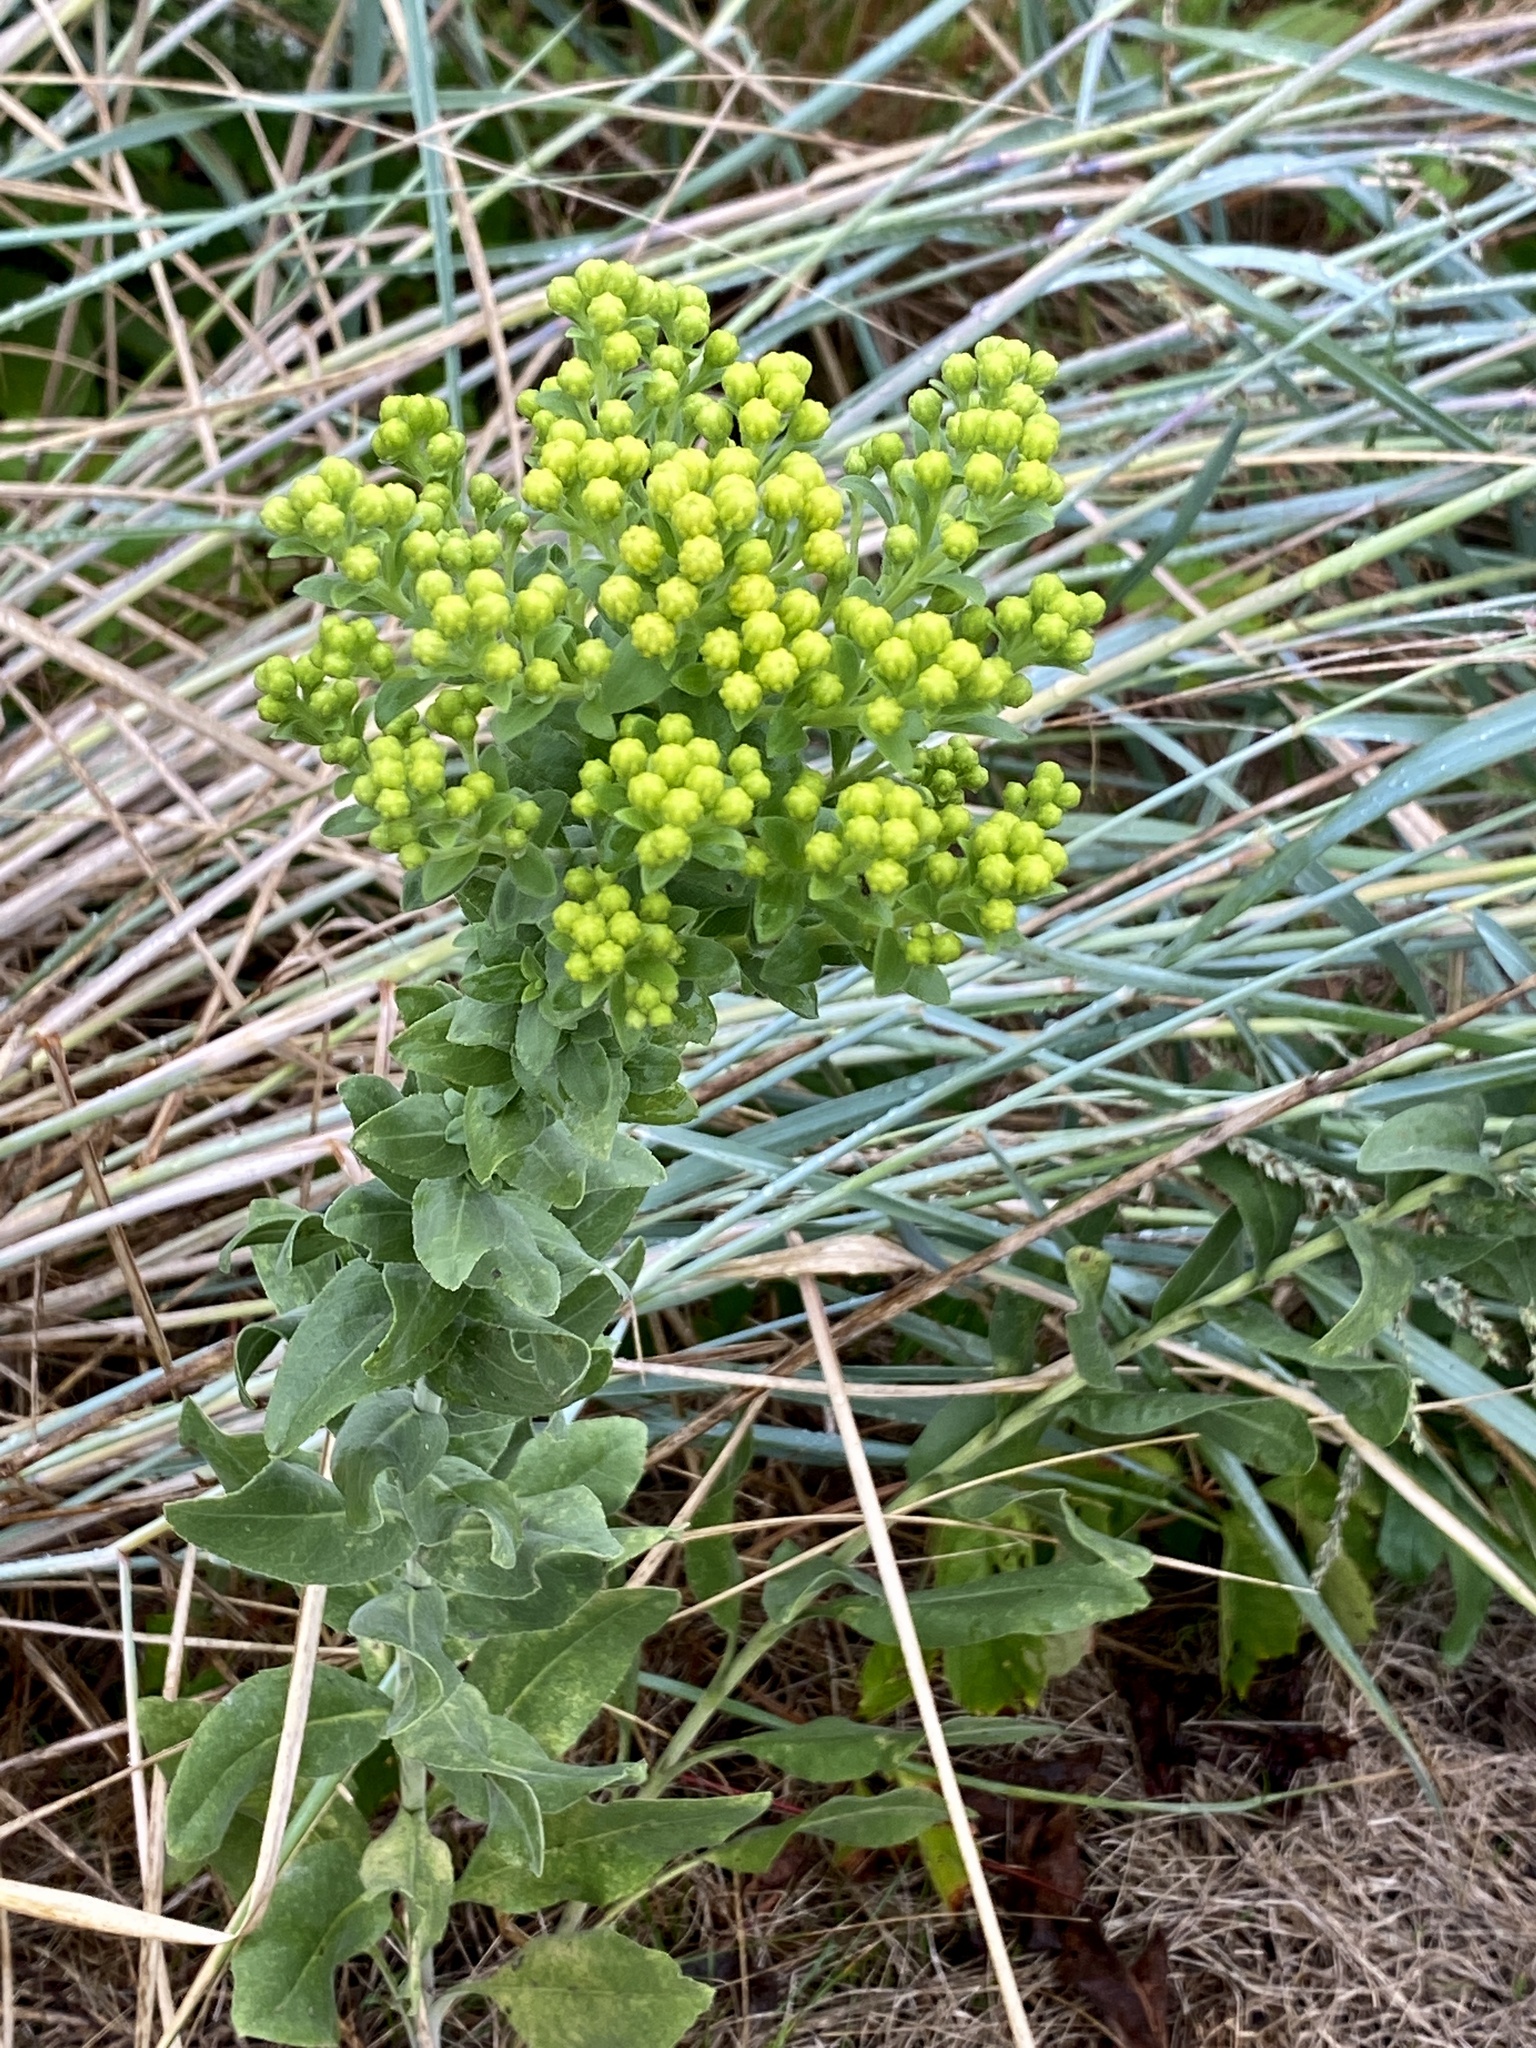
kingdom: Plantae
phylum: Tracheophyta
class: Magnoliopsida
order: Asterales
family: Asteraceae
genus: Solidago
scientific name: Solidago rigida
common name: Rigid goldenrod
